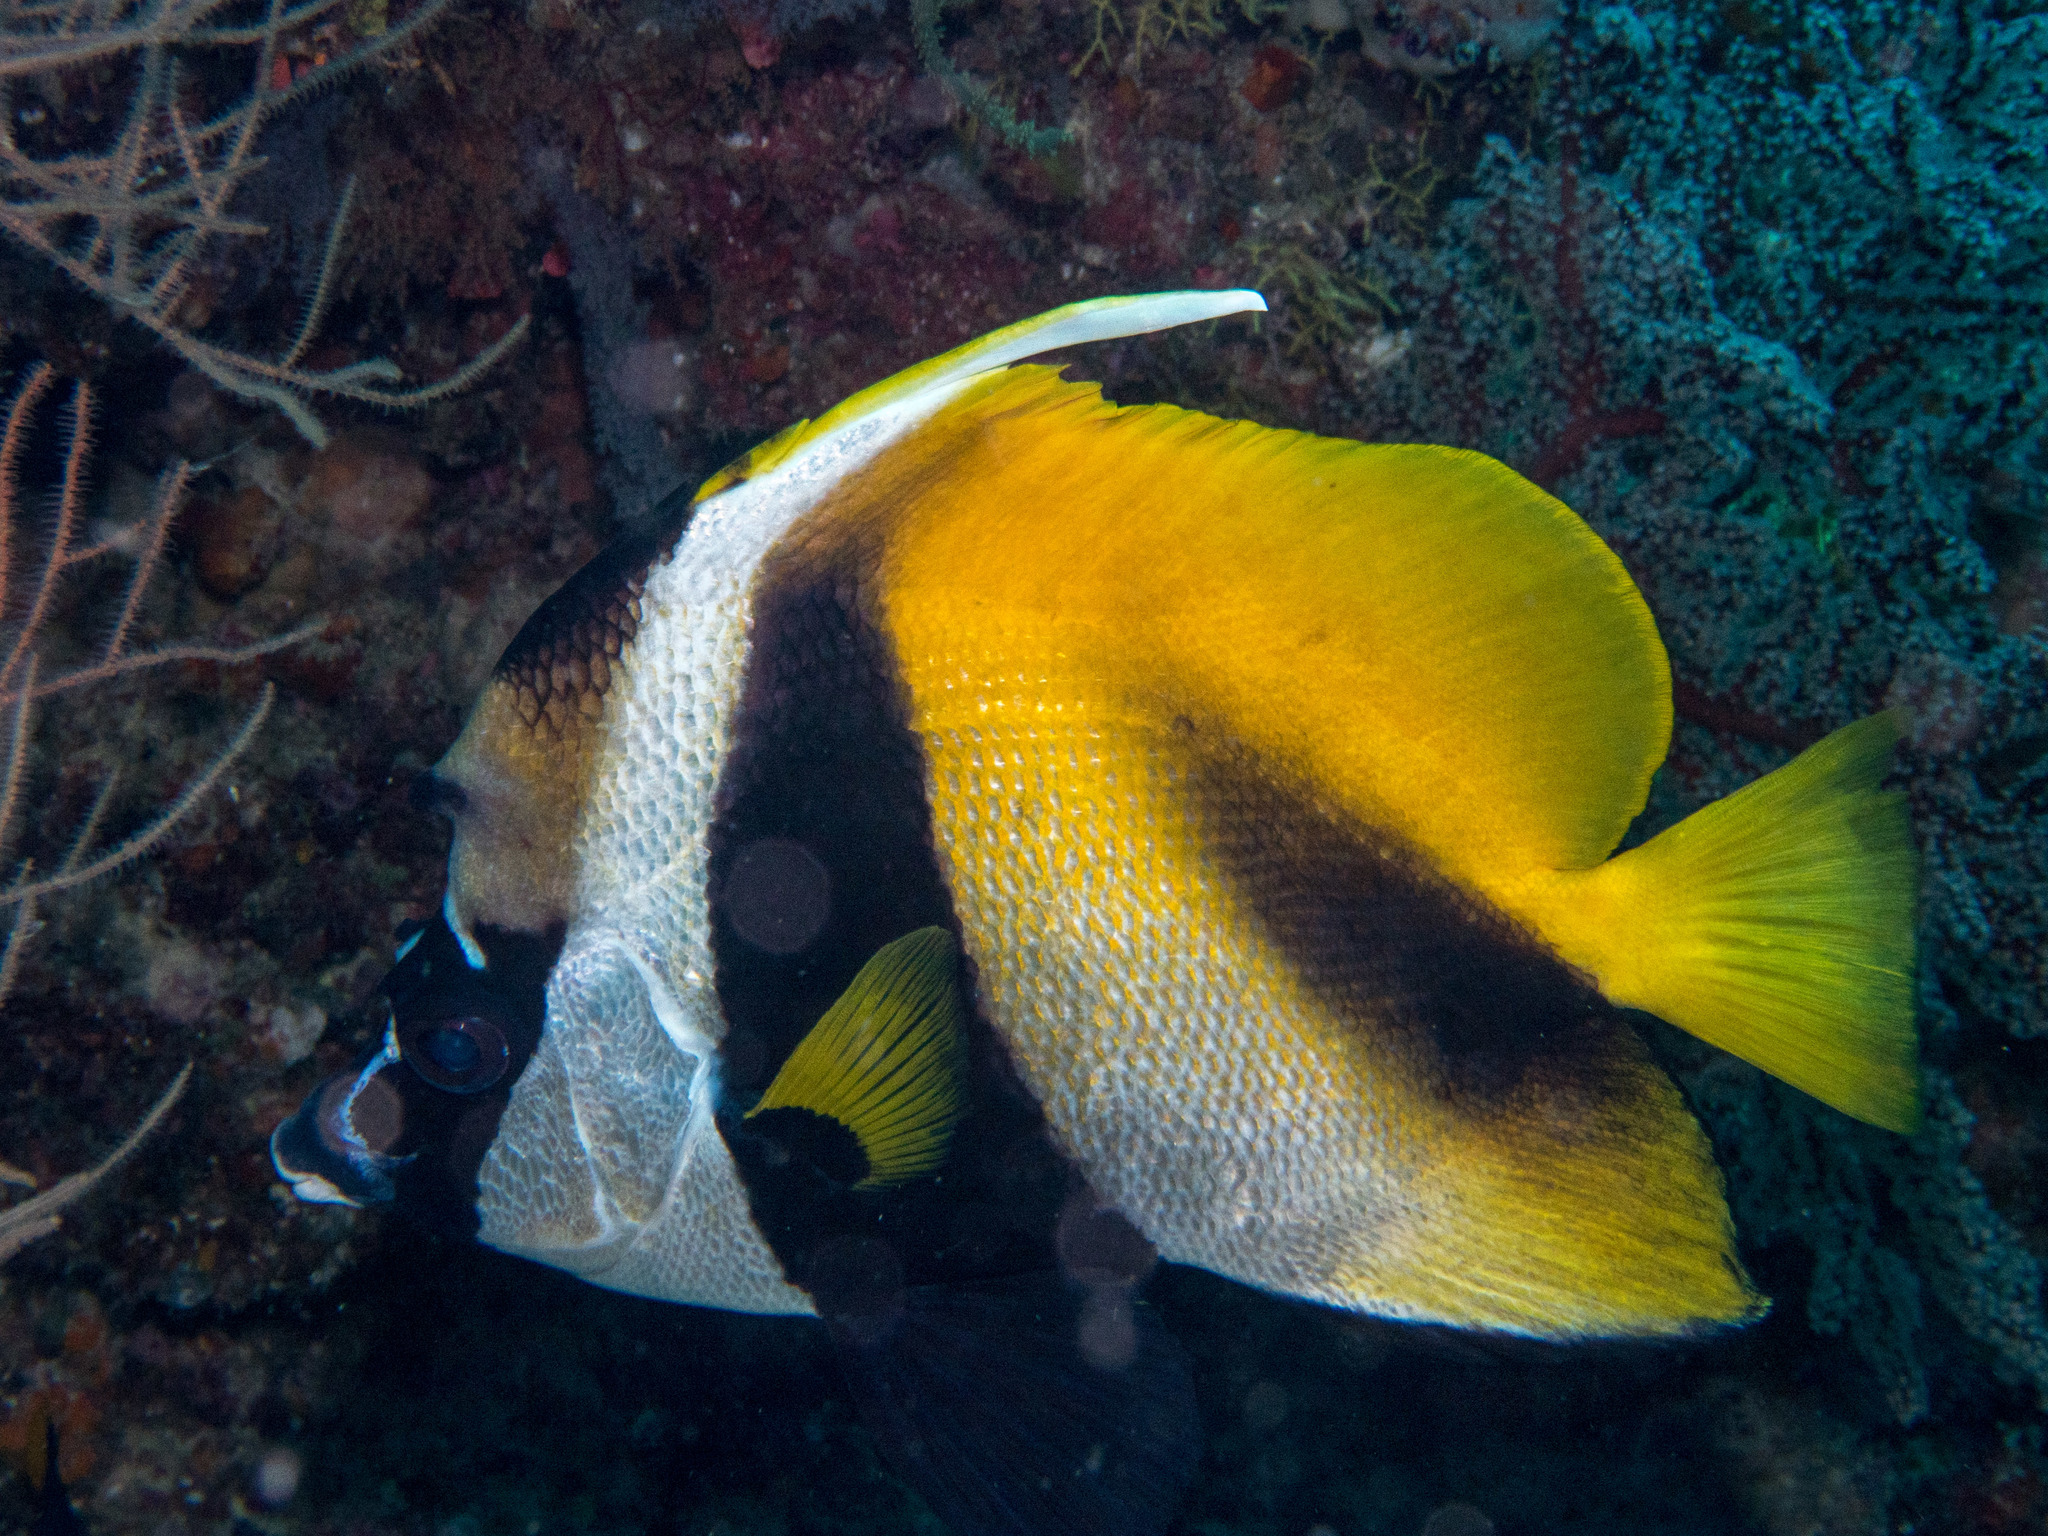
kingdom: Animalia
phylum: Chordata
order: Perciformes
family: Chaetodontidae
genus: Heniochus
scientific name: Heniochus monoceros
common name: Masked bannerfish
